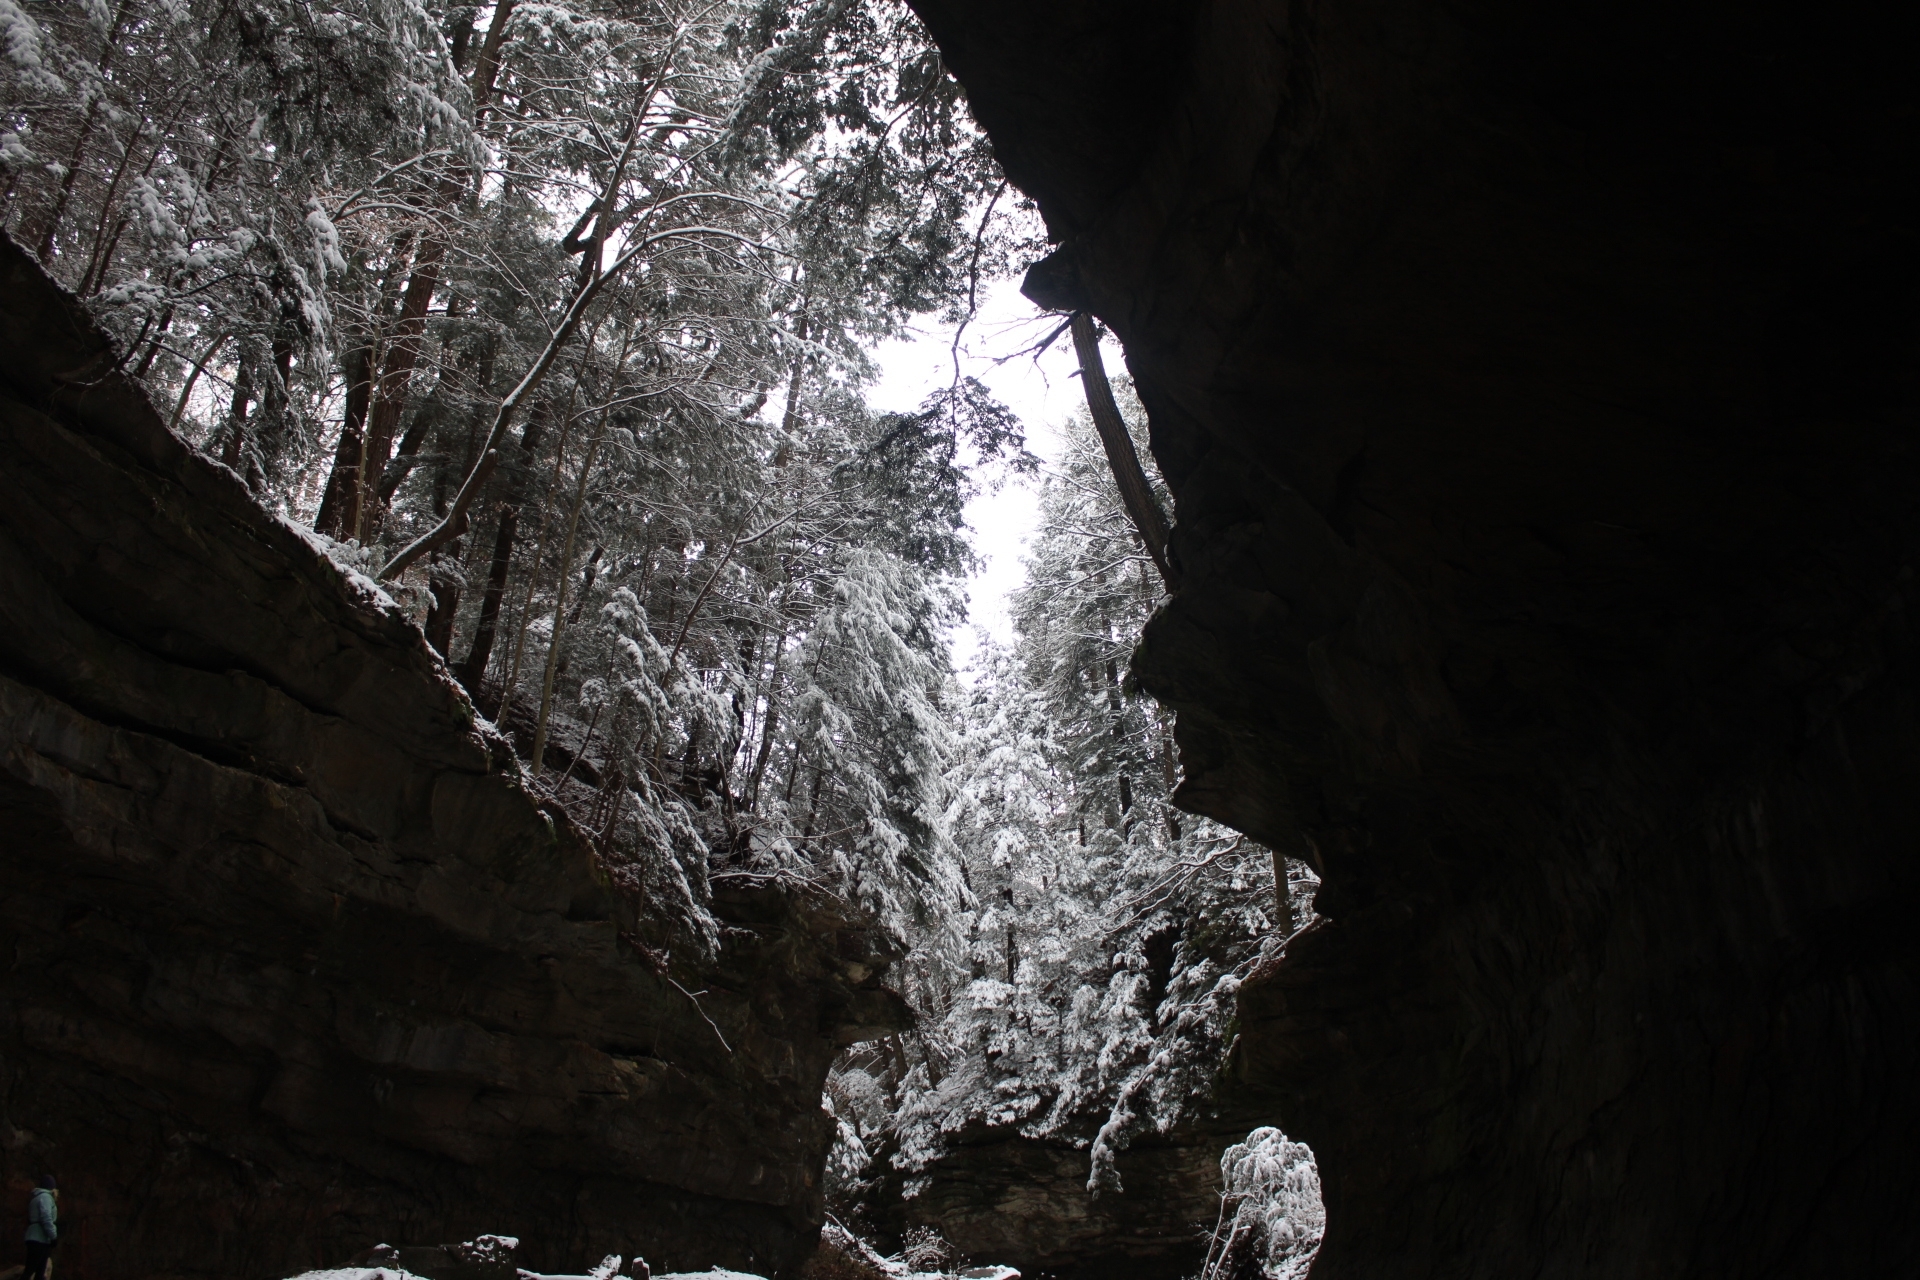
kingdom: Plantae
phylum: Tracheophyta
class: Pinopsida
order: Pinales
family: Pinaceae
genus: Tsuga
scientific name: Tsuga canadensis
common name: Eastern hemlock
